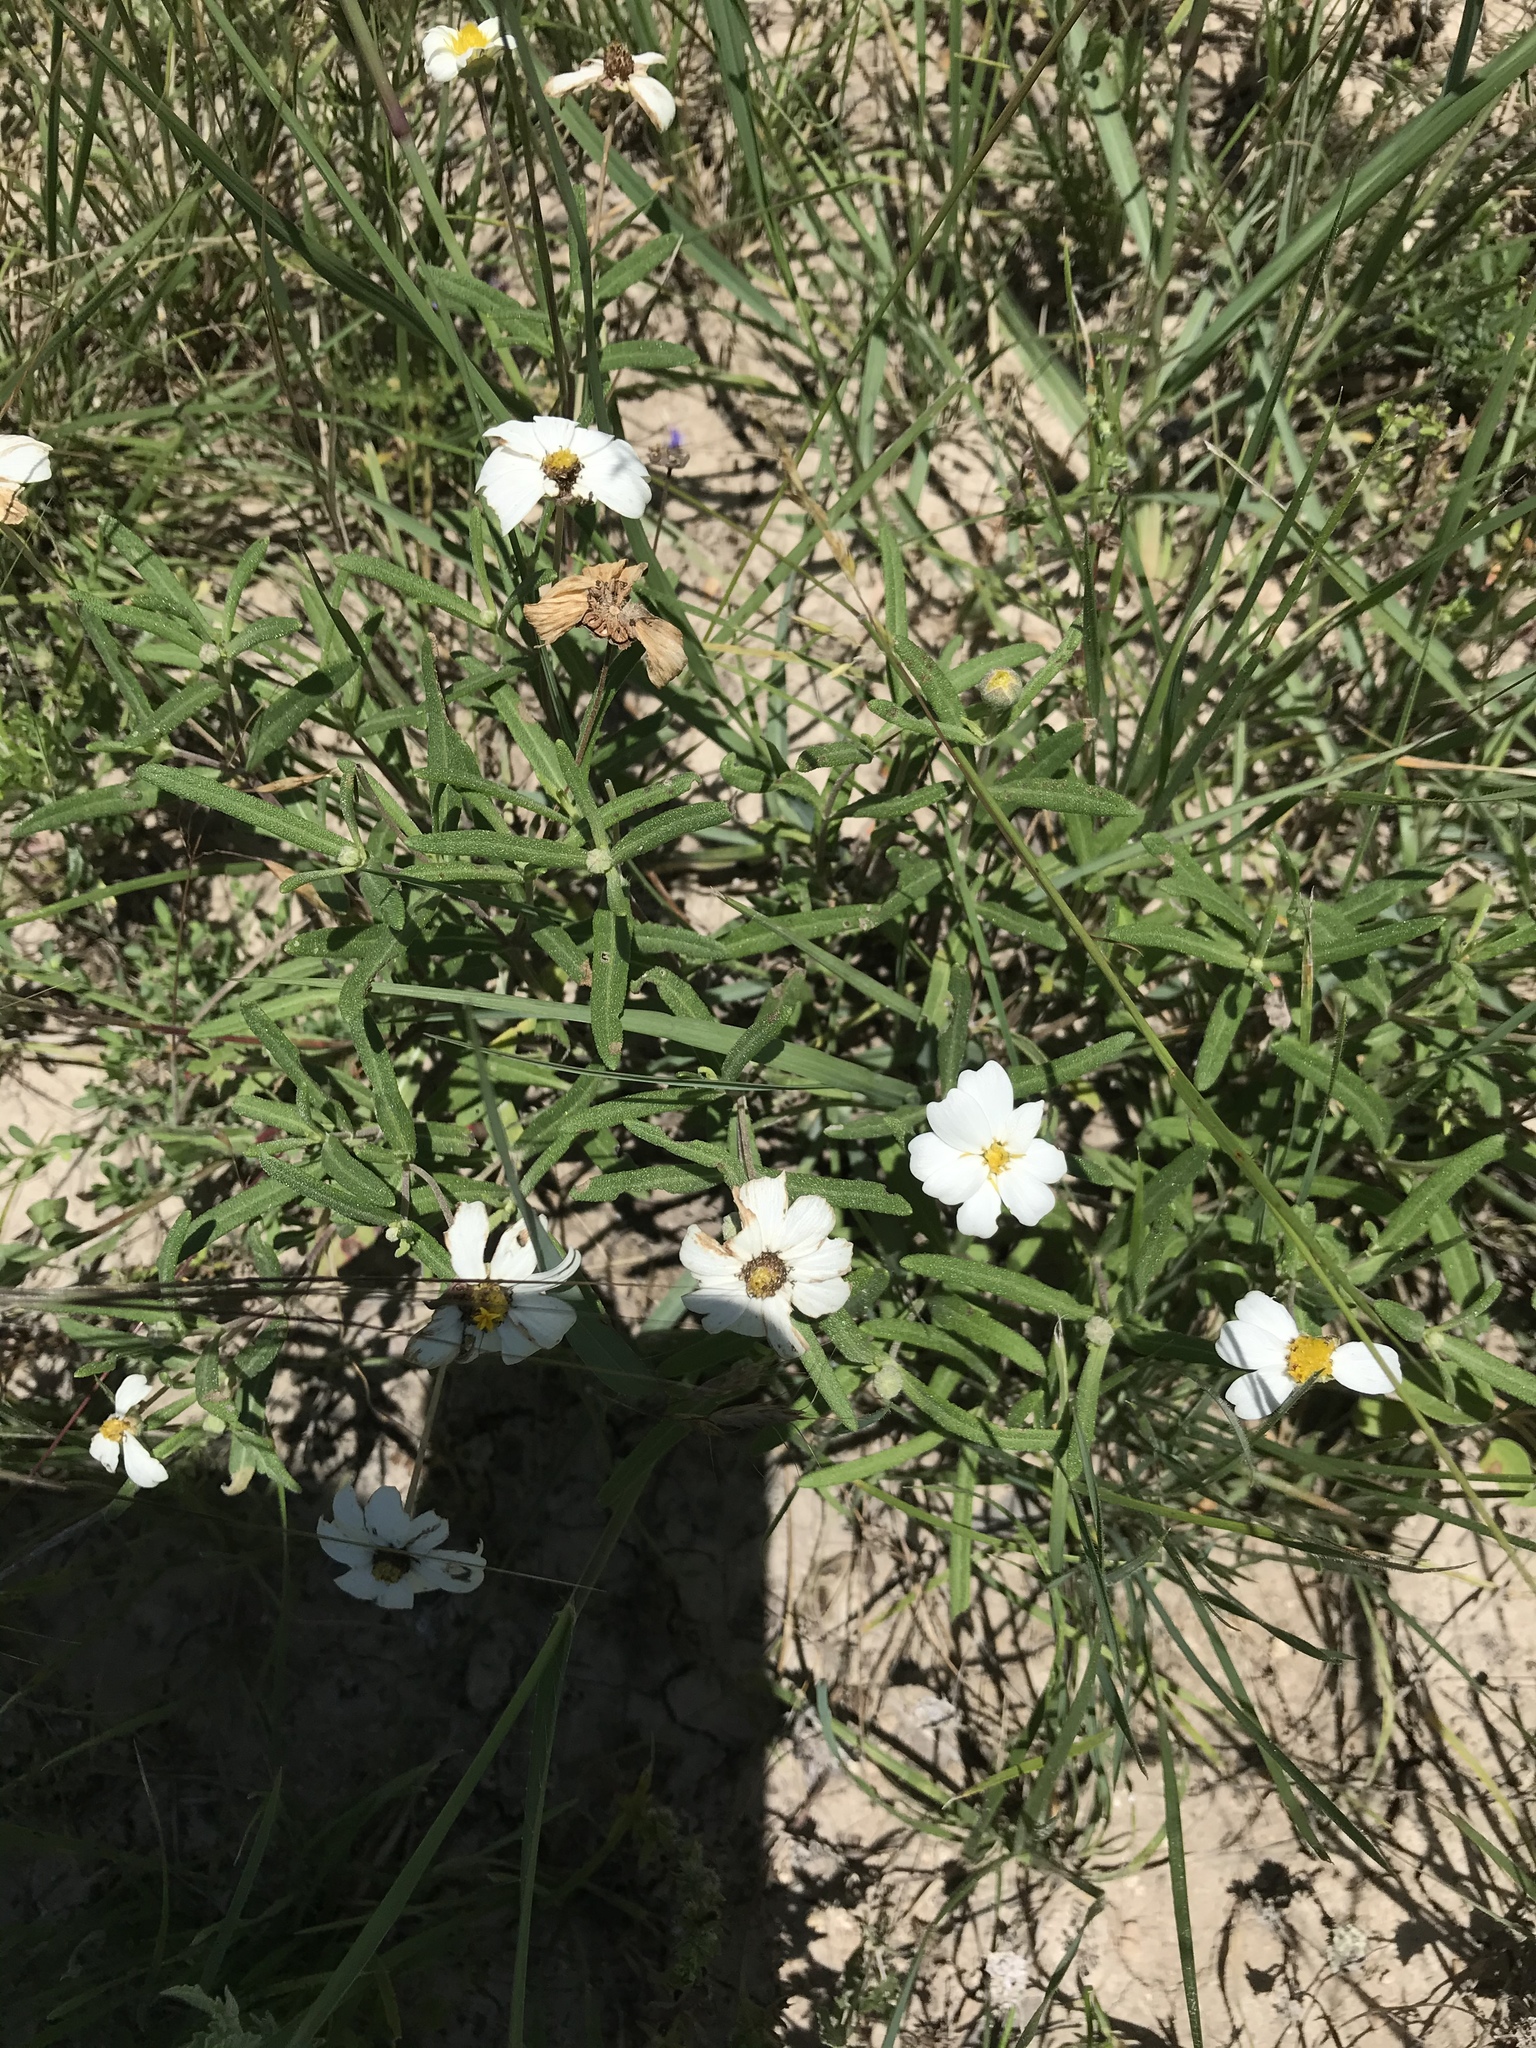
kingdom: Plantae
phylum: Tracheophyta
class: Magnoliopsida
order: Asterales
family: Asteraceae
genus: Melampodium
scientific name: Melampodium leucanthum
